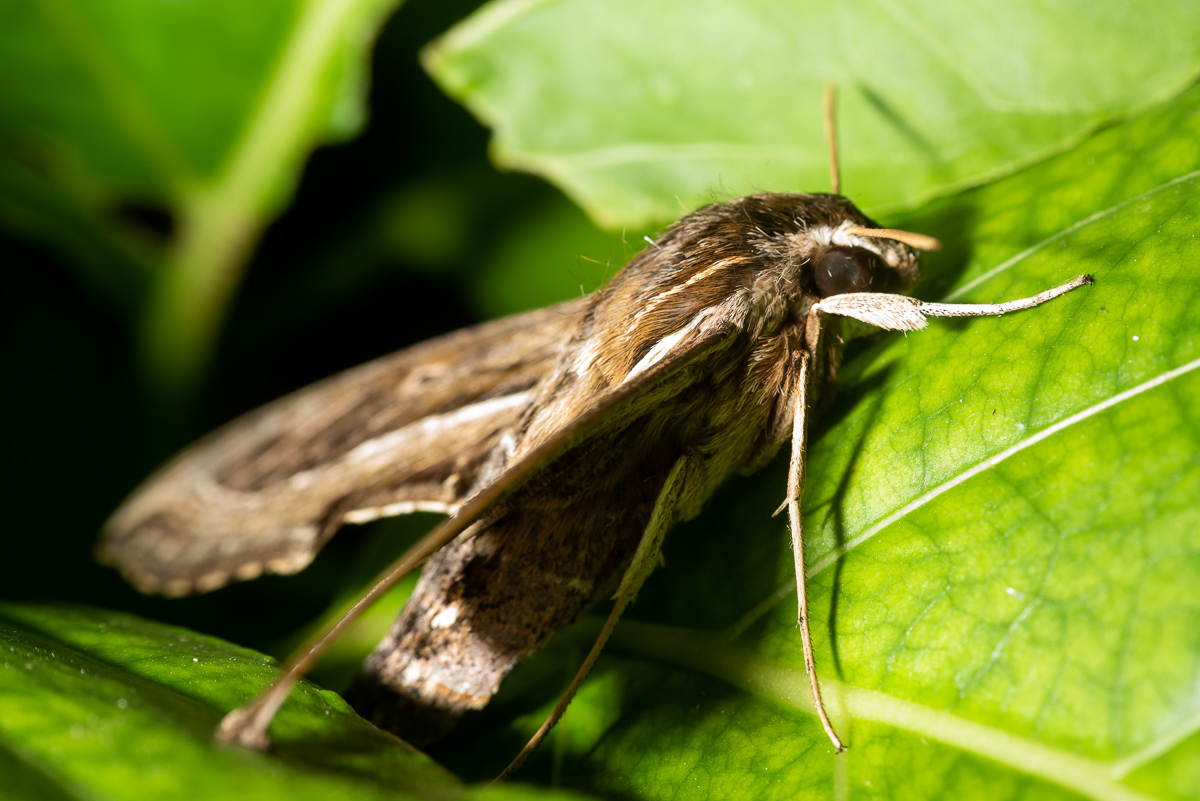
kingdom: Animalia
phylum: Arthropoda
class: Insecta
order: Lepidoptera
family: Sphingidae
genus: Hippotion
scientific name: Hippotion velox
